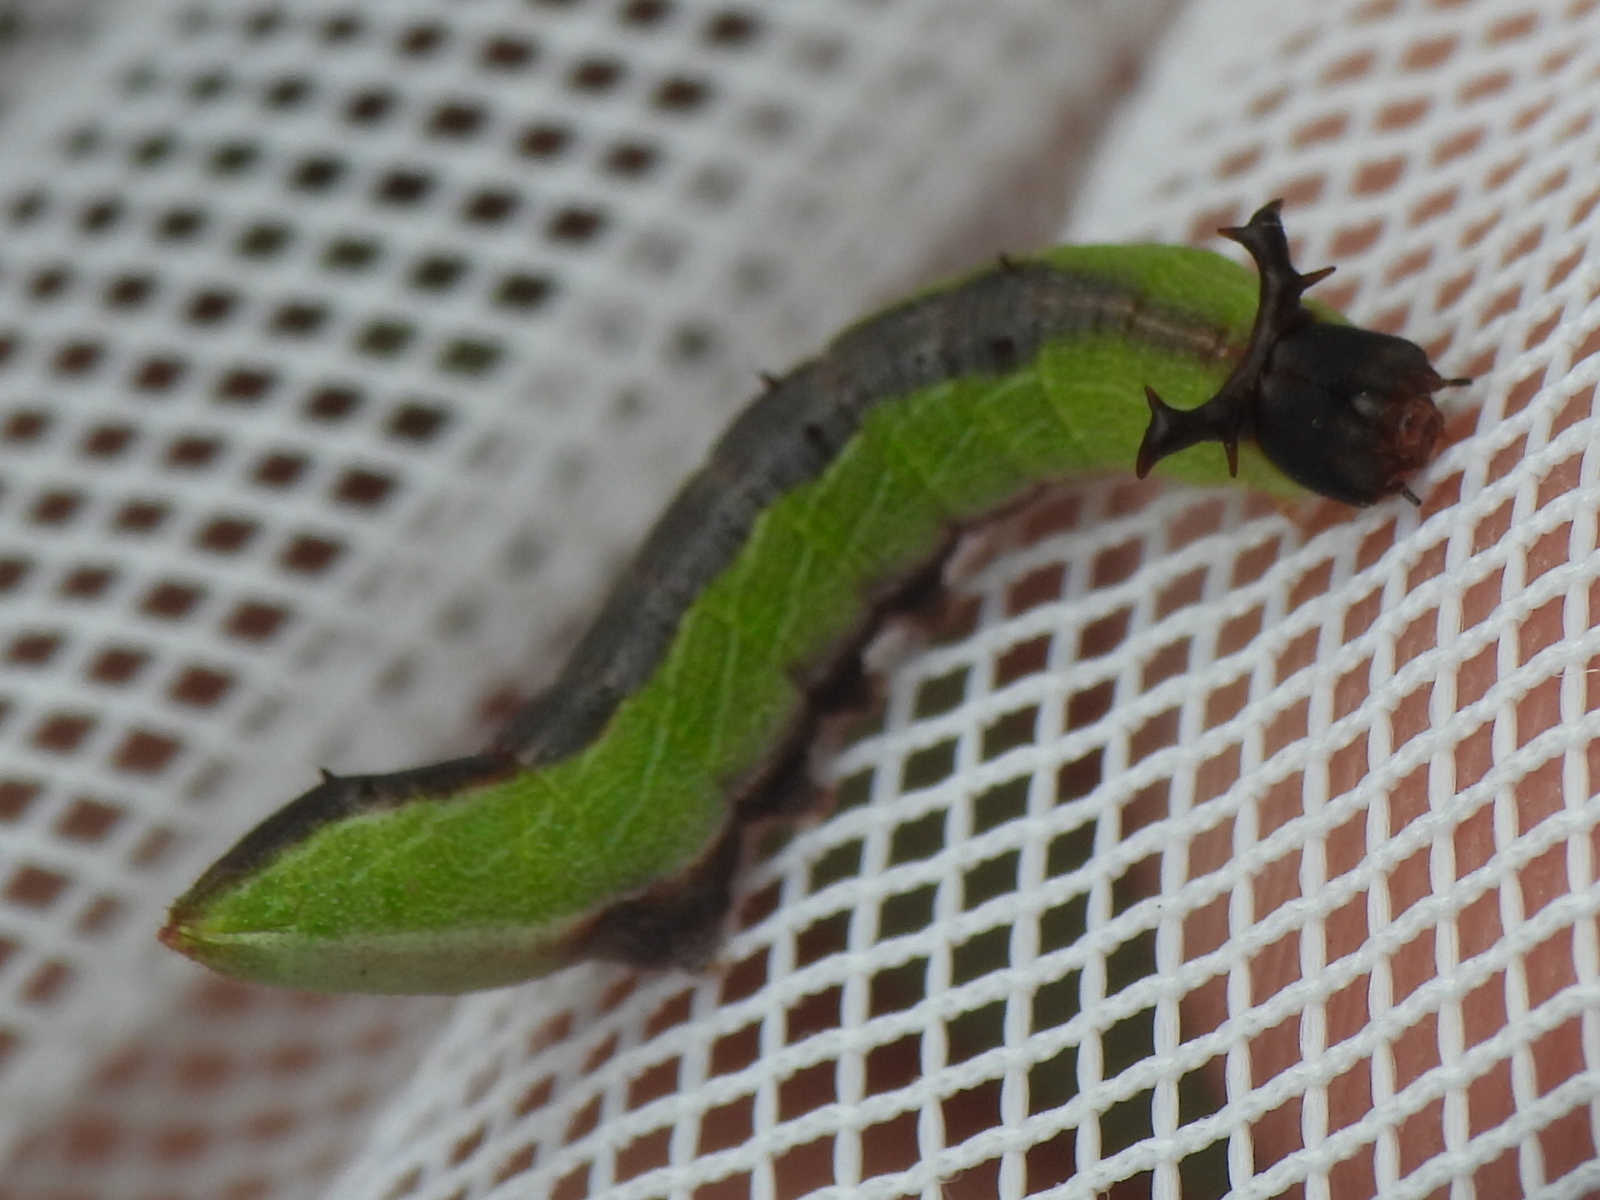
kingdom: Animalia
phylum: Arthropoda
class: Insecta
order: Lepidoptera
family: Notodontidae
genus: Litodonta
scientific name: Litodonta hydromeli
